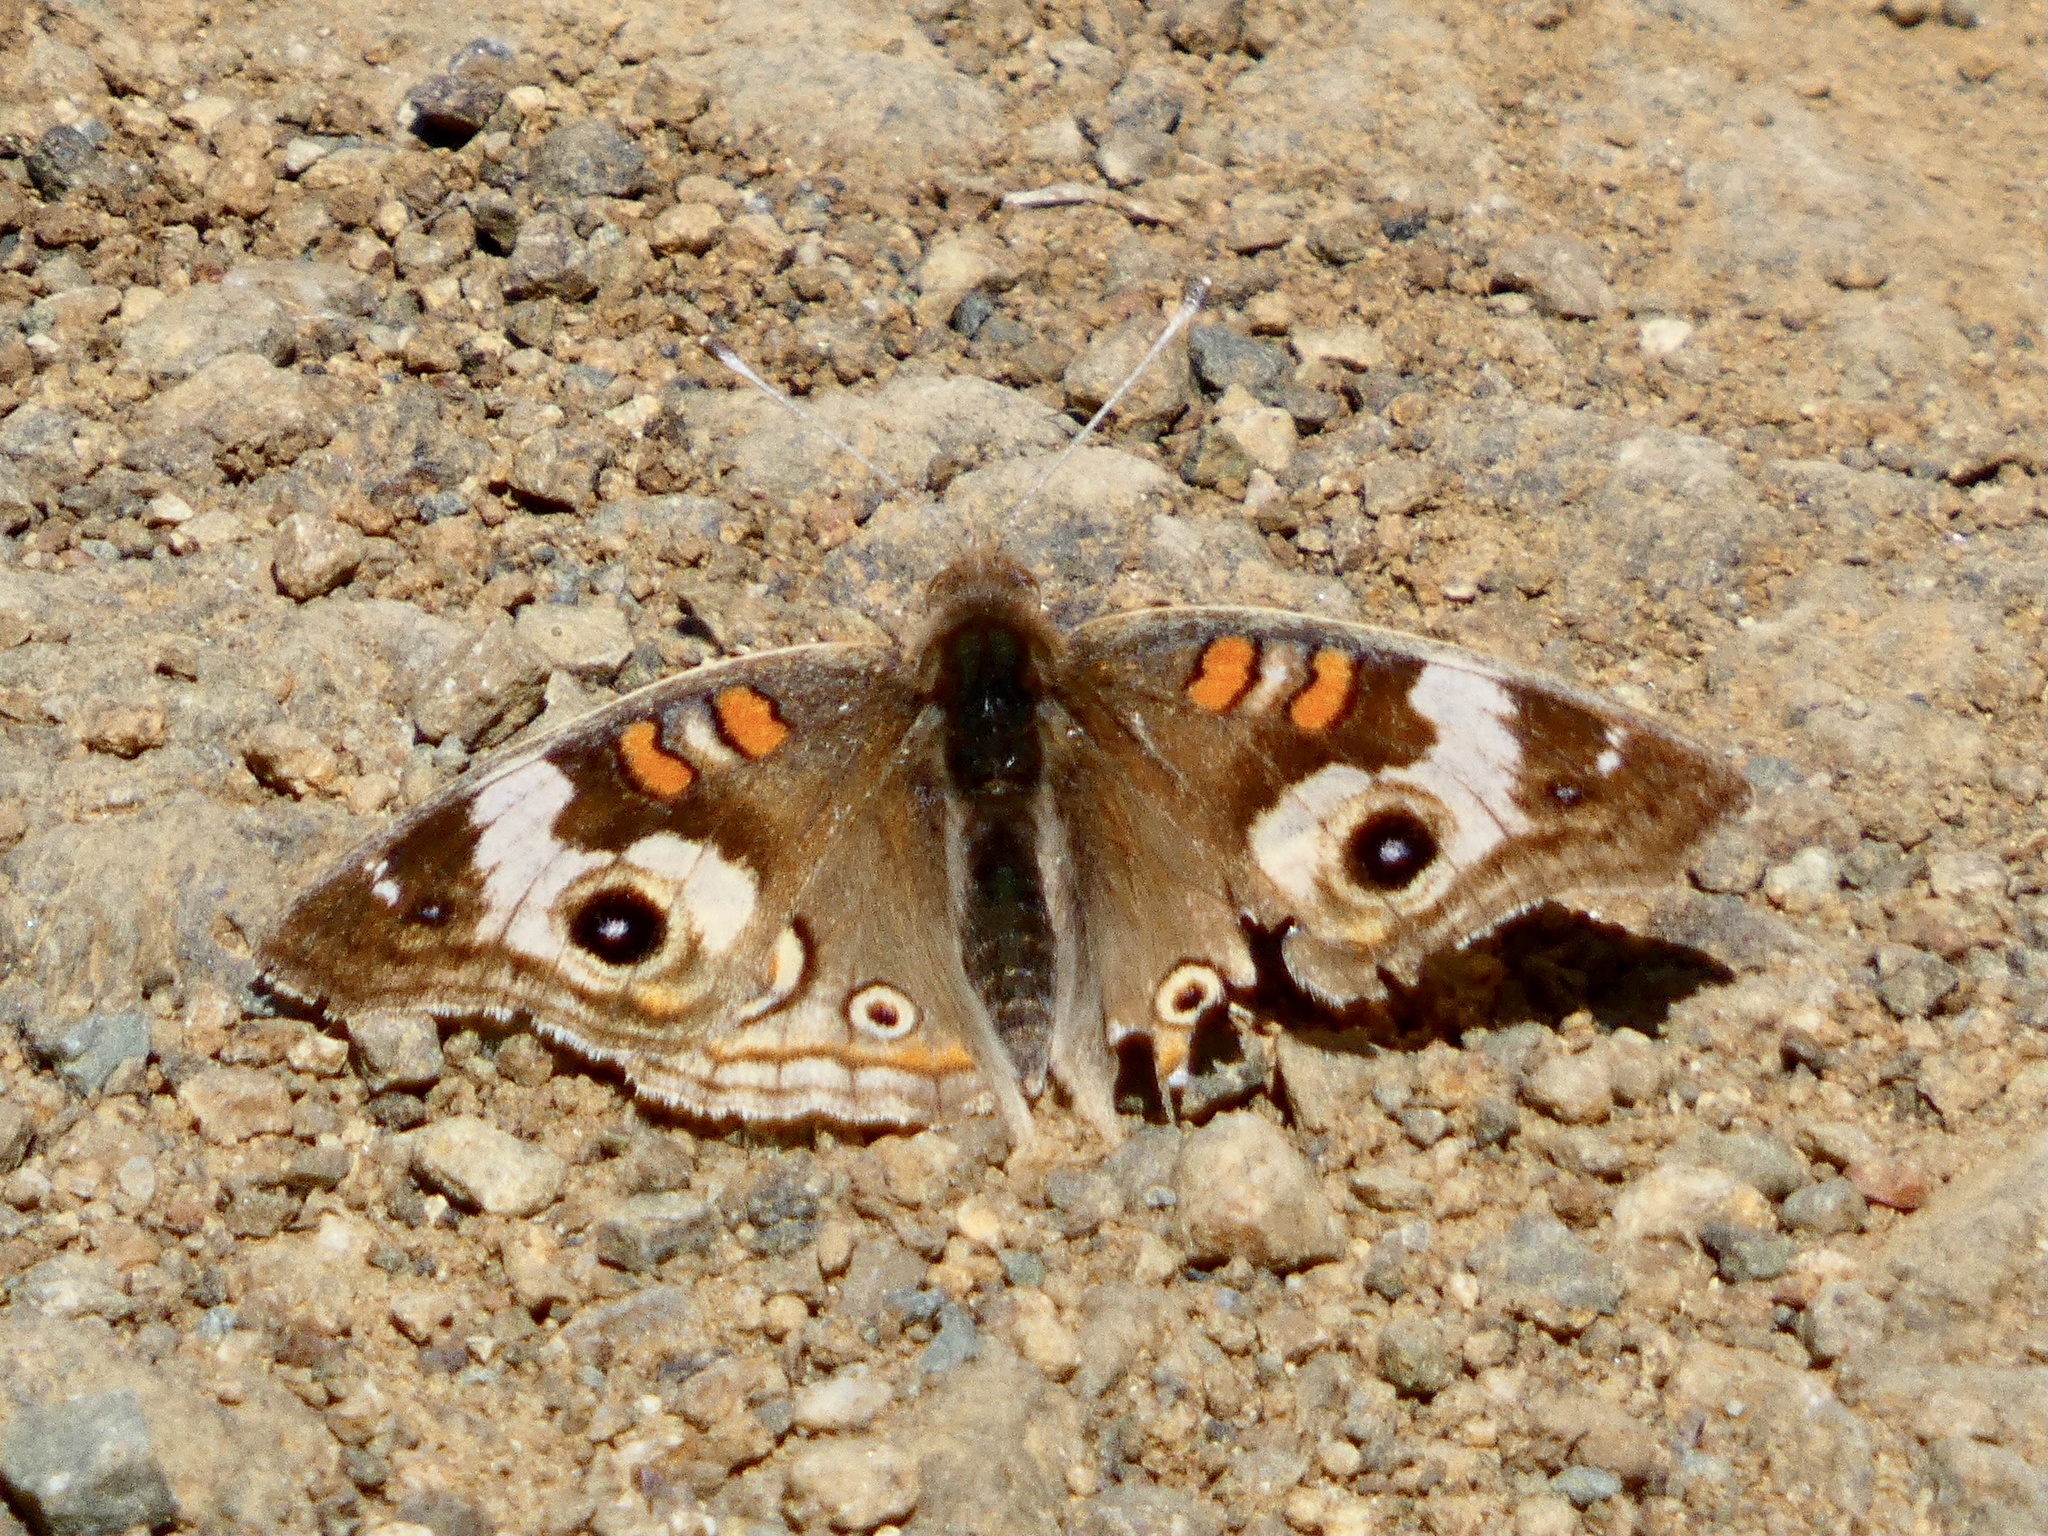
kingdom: Animalia
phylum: Arthropoda
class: Insecta
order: Lepidoptera
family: Nymphalidae
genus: Junonia
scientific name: Junonia grisea
